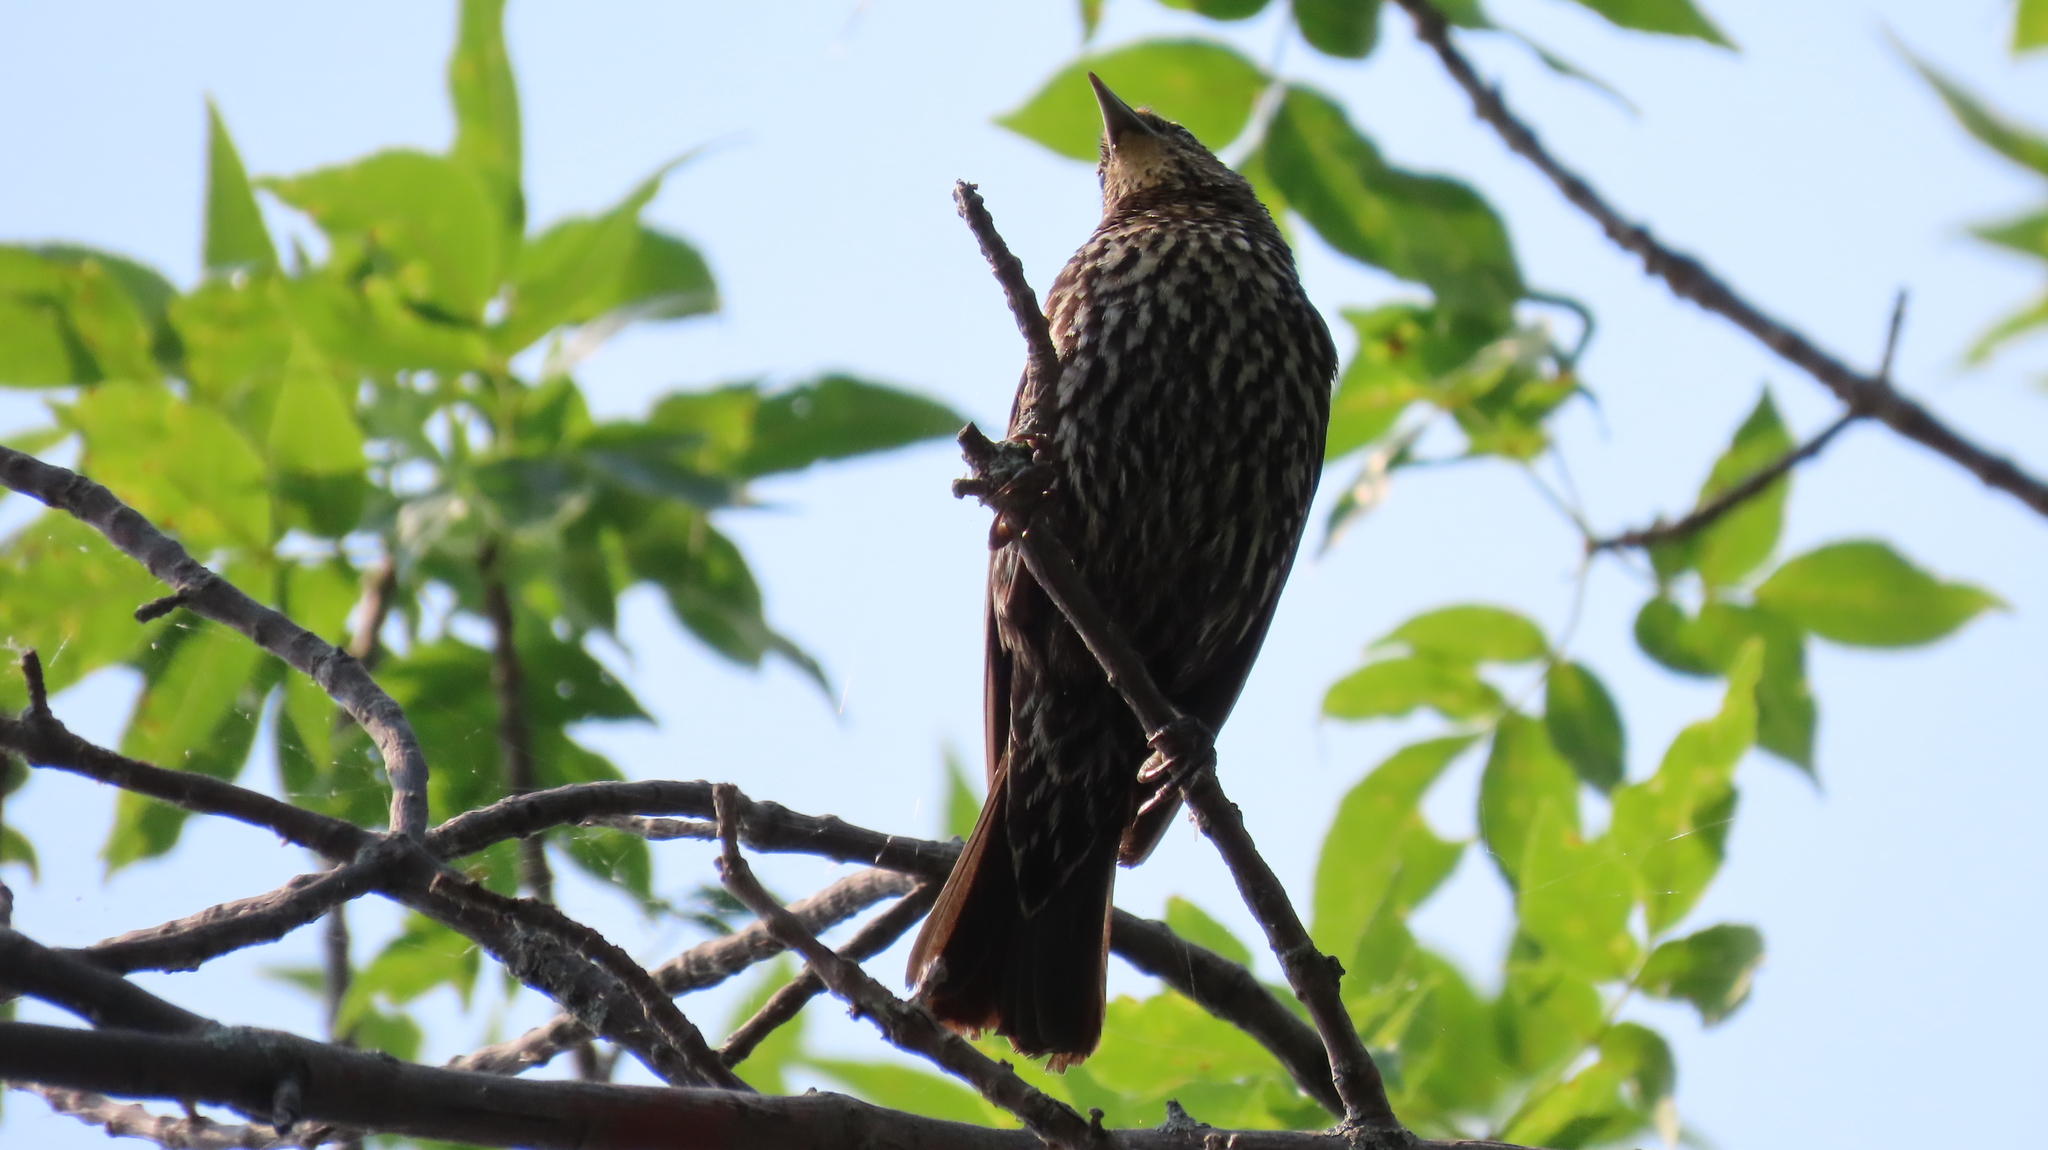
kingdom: Animalia
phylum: Chordata
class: Aves
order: Passeriformes
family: Icteridae
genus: Agelaius
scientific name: Agelaius phoeniceus
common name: Red-winged blackbird
